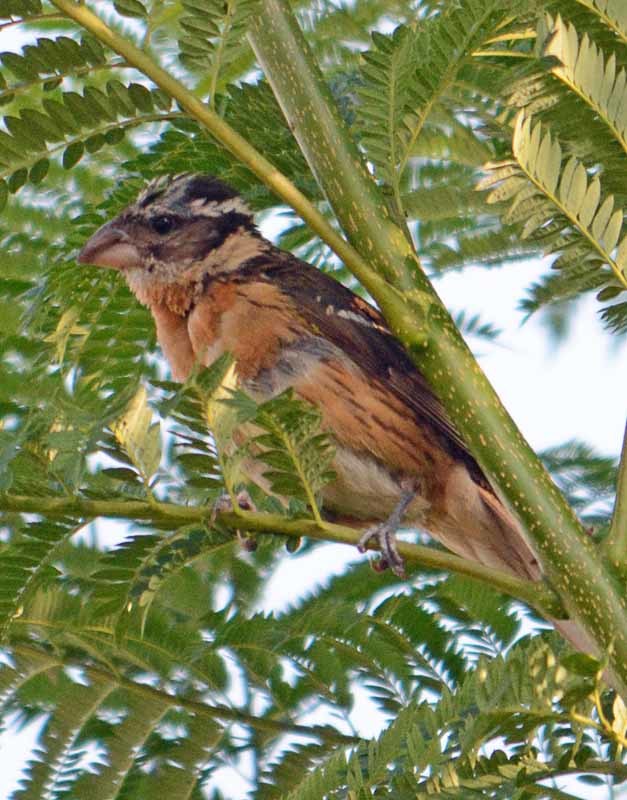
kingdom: Animalia
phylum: Chordata
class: Aves
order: Passeriformes
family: Cardinalidae
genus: Pheucticus
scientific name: Pheucticus melanocephalus
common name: Black-headed grosbeak
